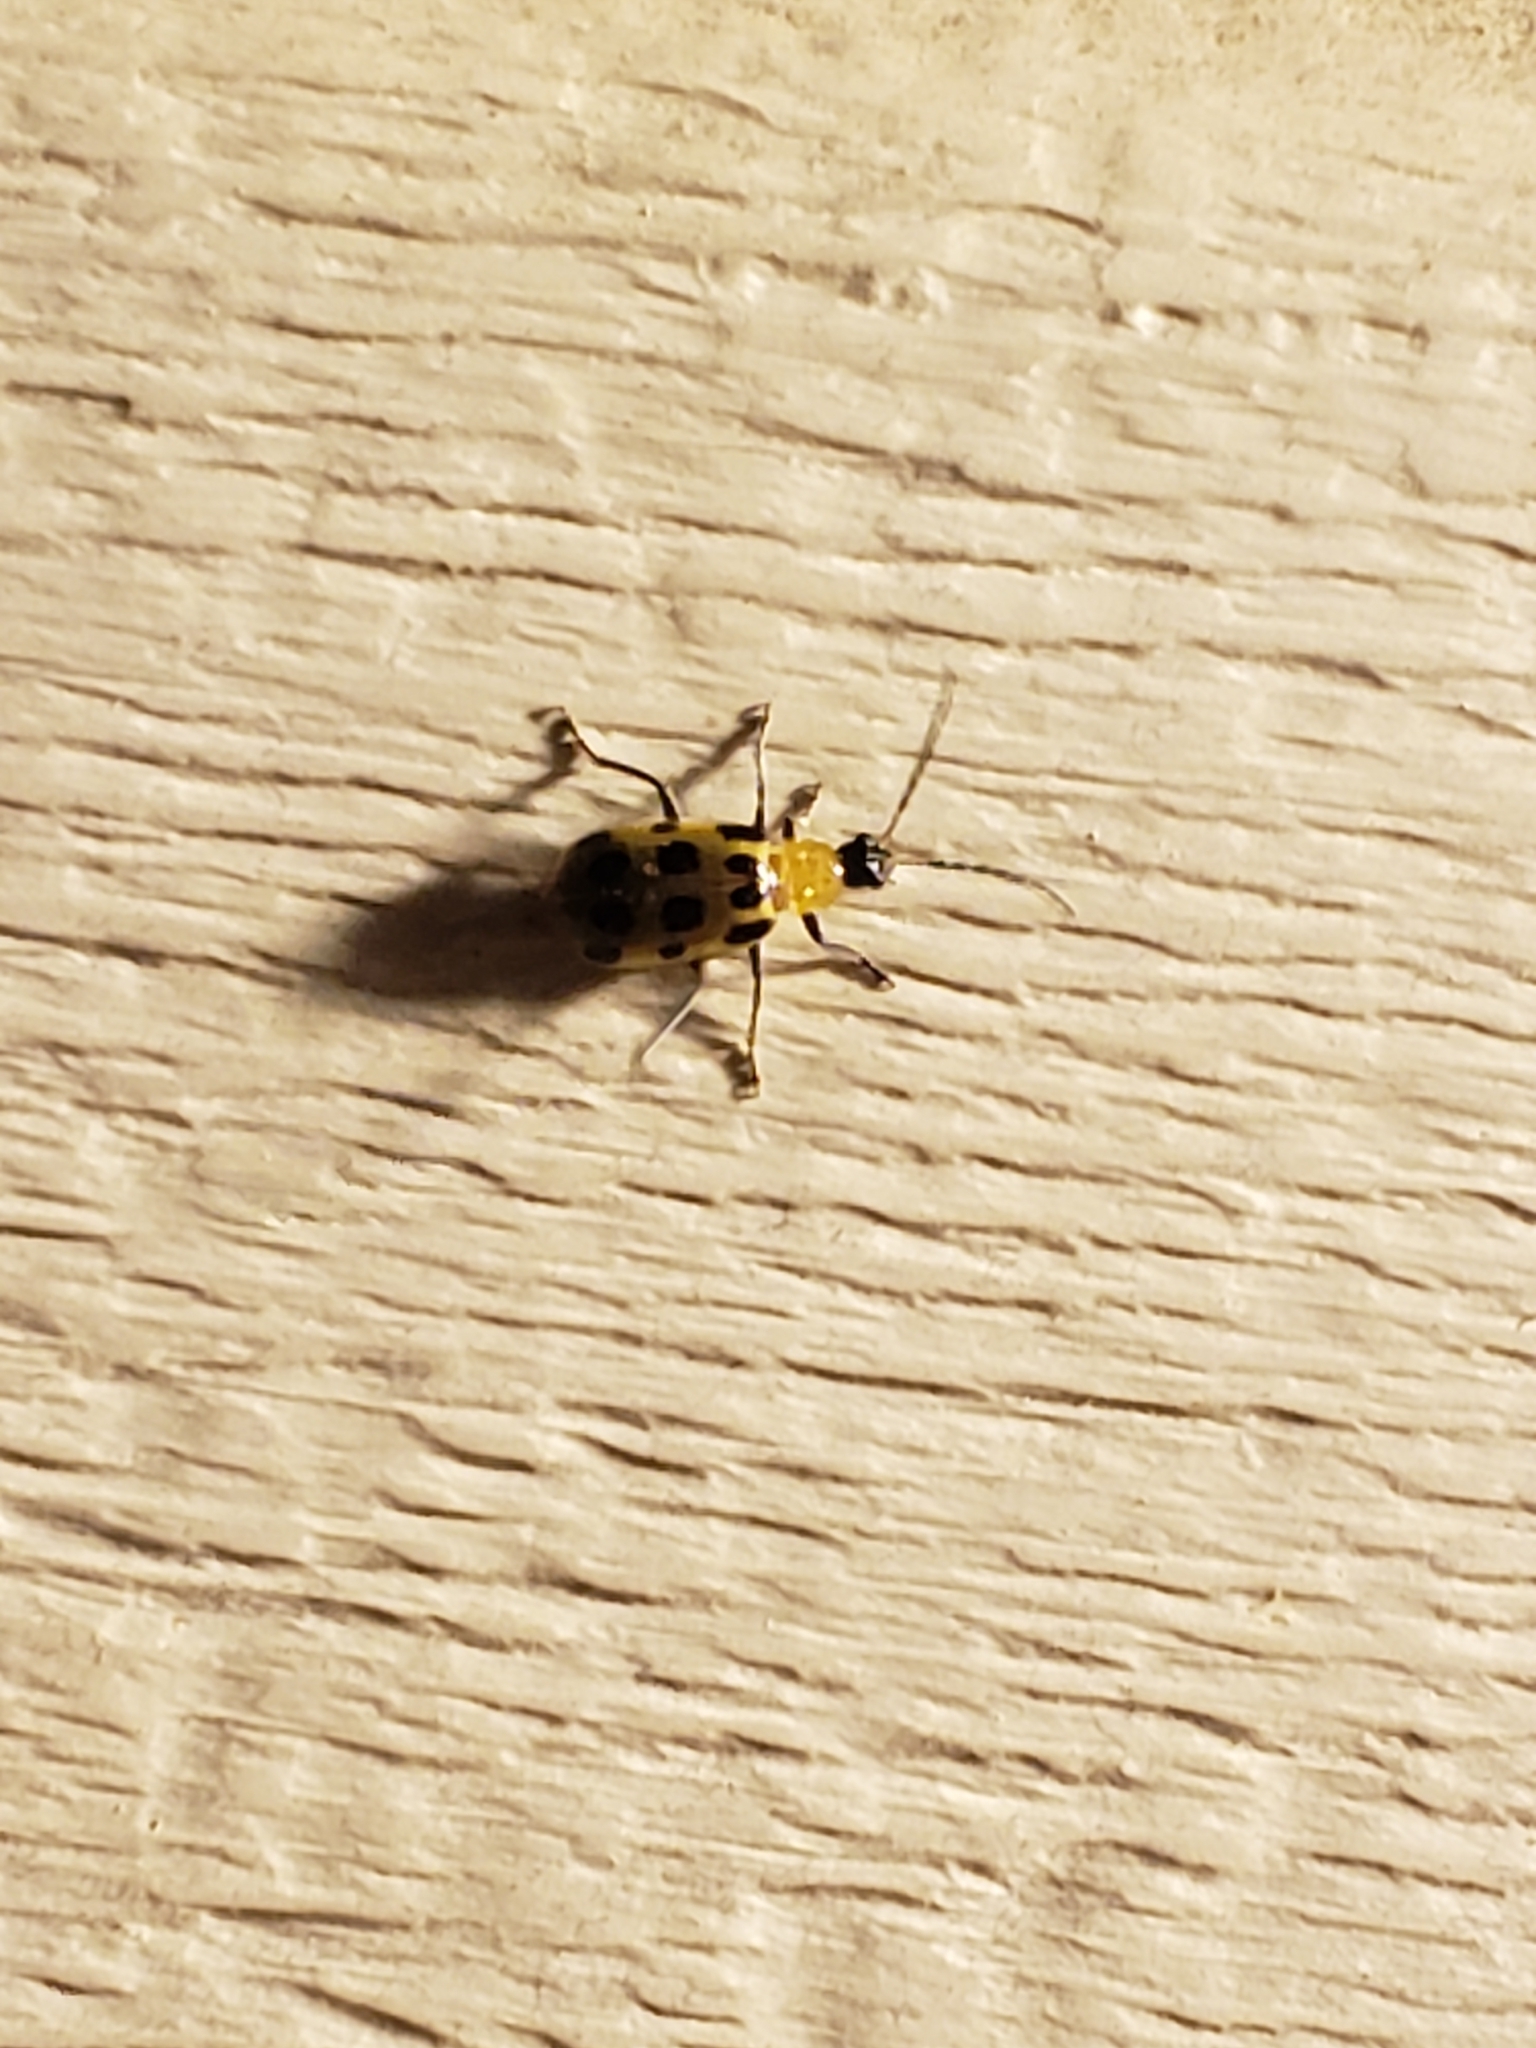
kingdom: Animalia
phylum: Arthropoda
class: Insecta
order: Coleoptera
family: Chrysomelidae
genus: Diabrotica
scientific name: Diabrotica undecimpunctata
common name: Spotted cucumber beetle
